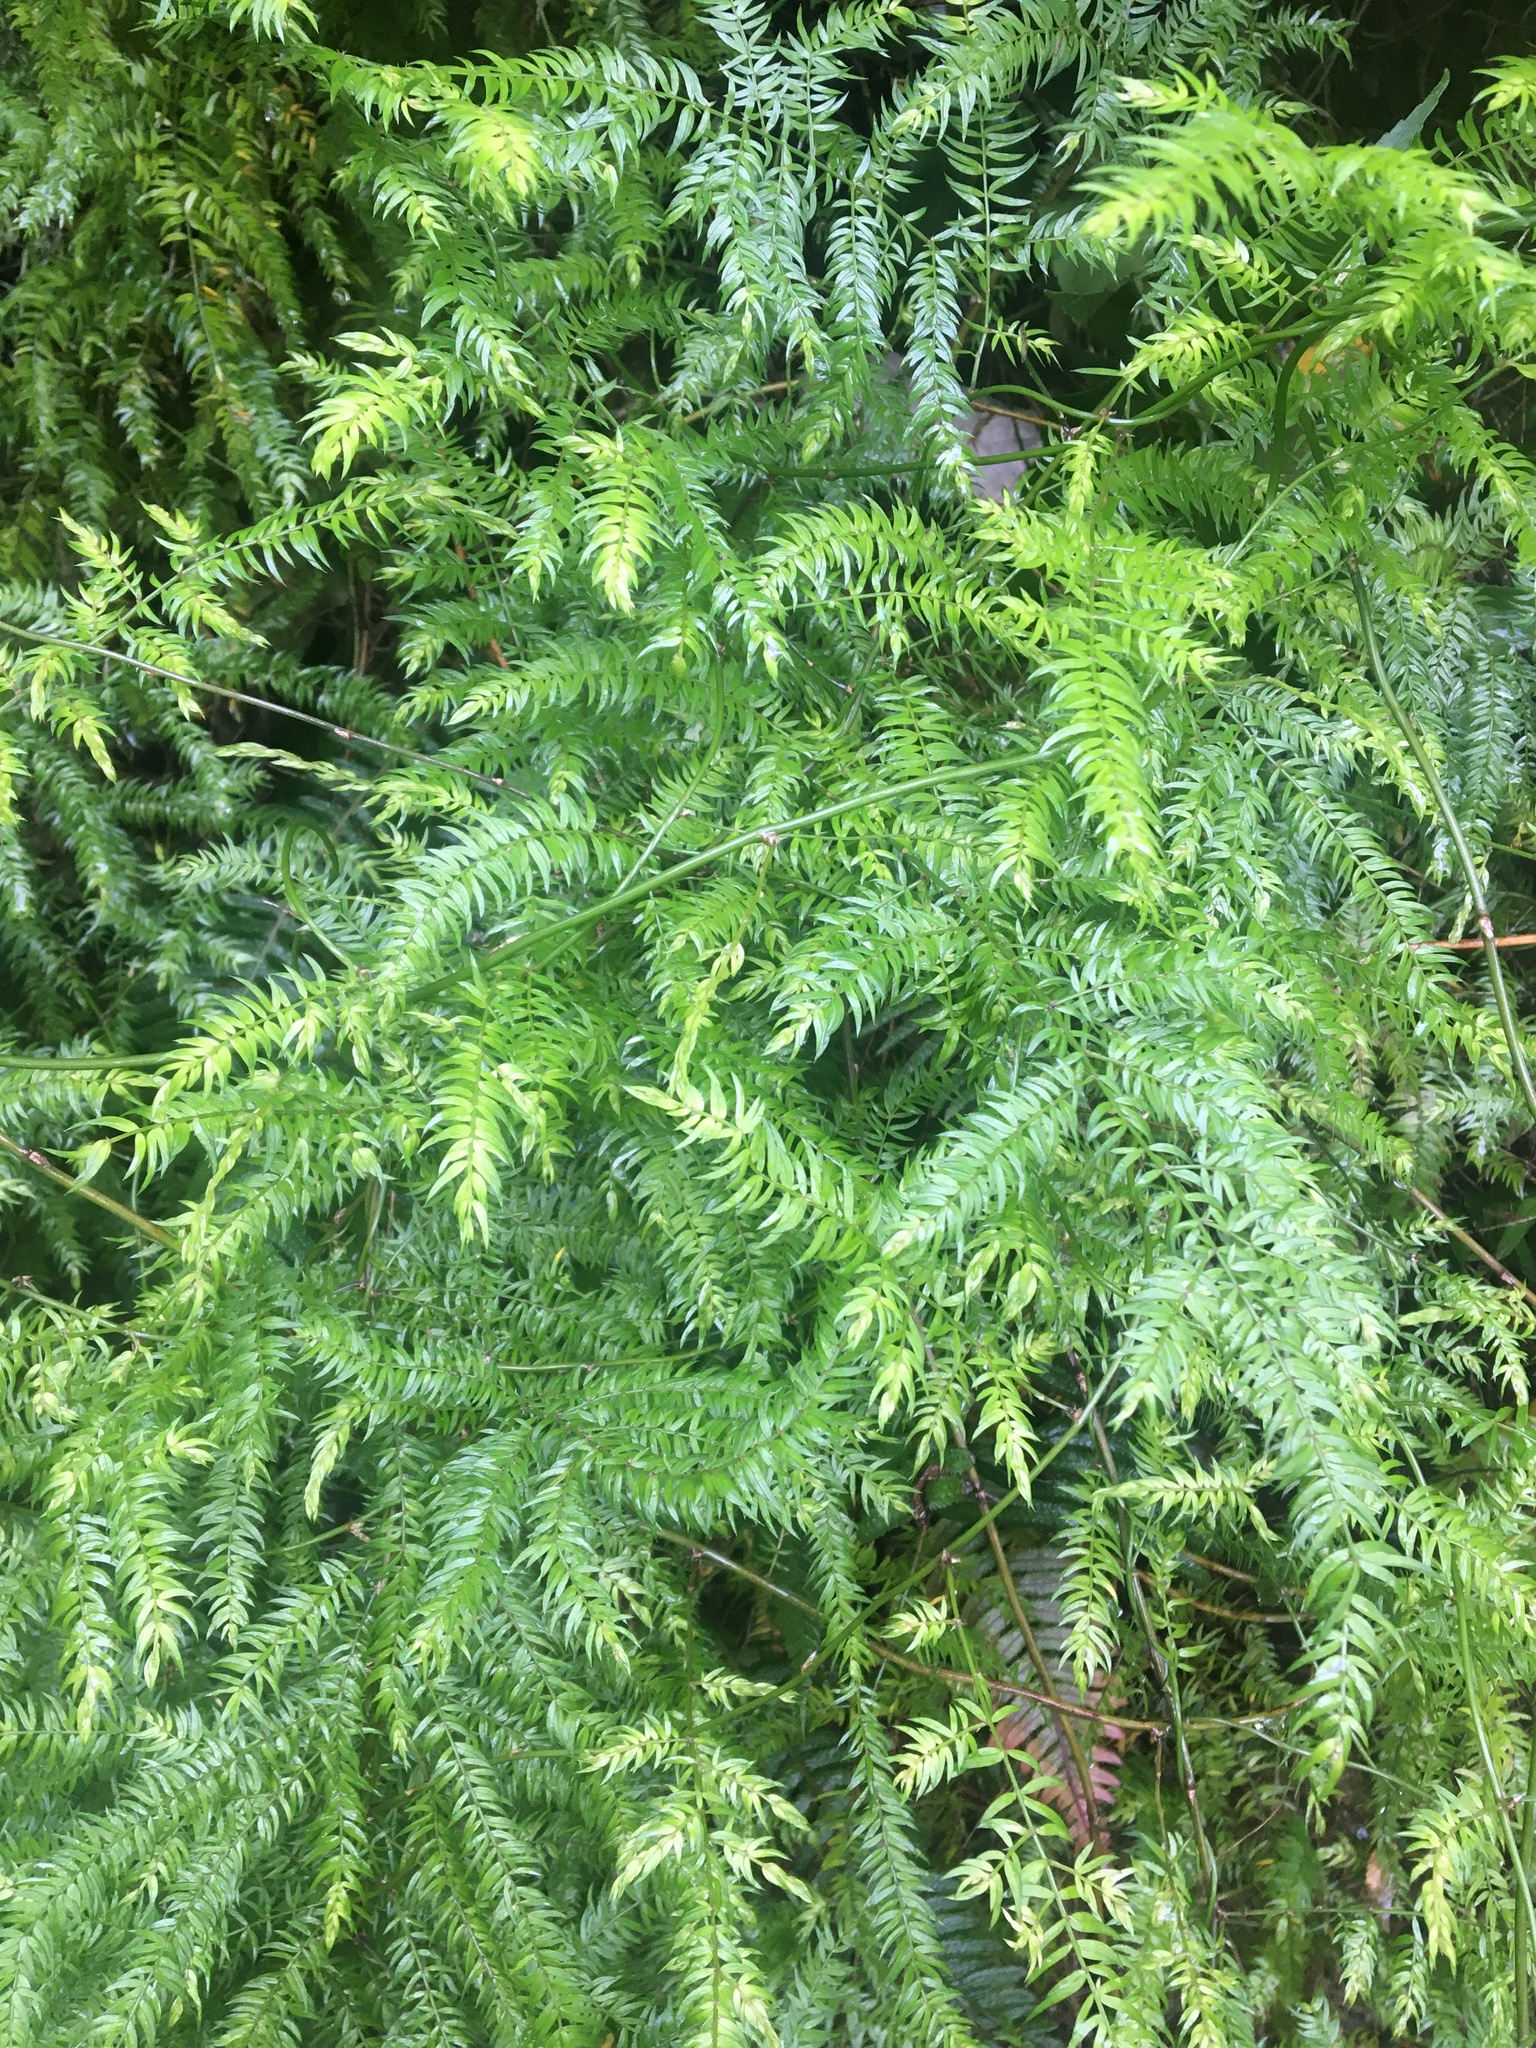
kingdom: Plantae
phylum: Tracheophyta
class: Liliopsida
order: Asparagales
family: Asparagaceae
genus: Asparagus
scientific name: Asparagus scandens
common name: Asparagus-fern
